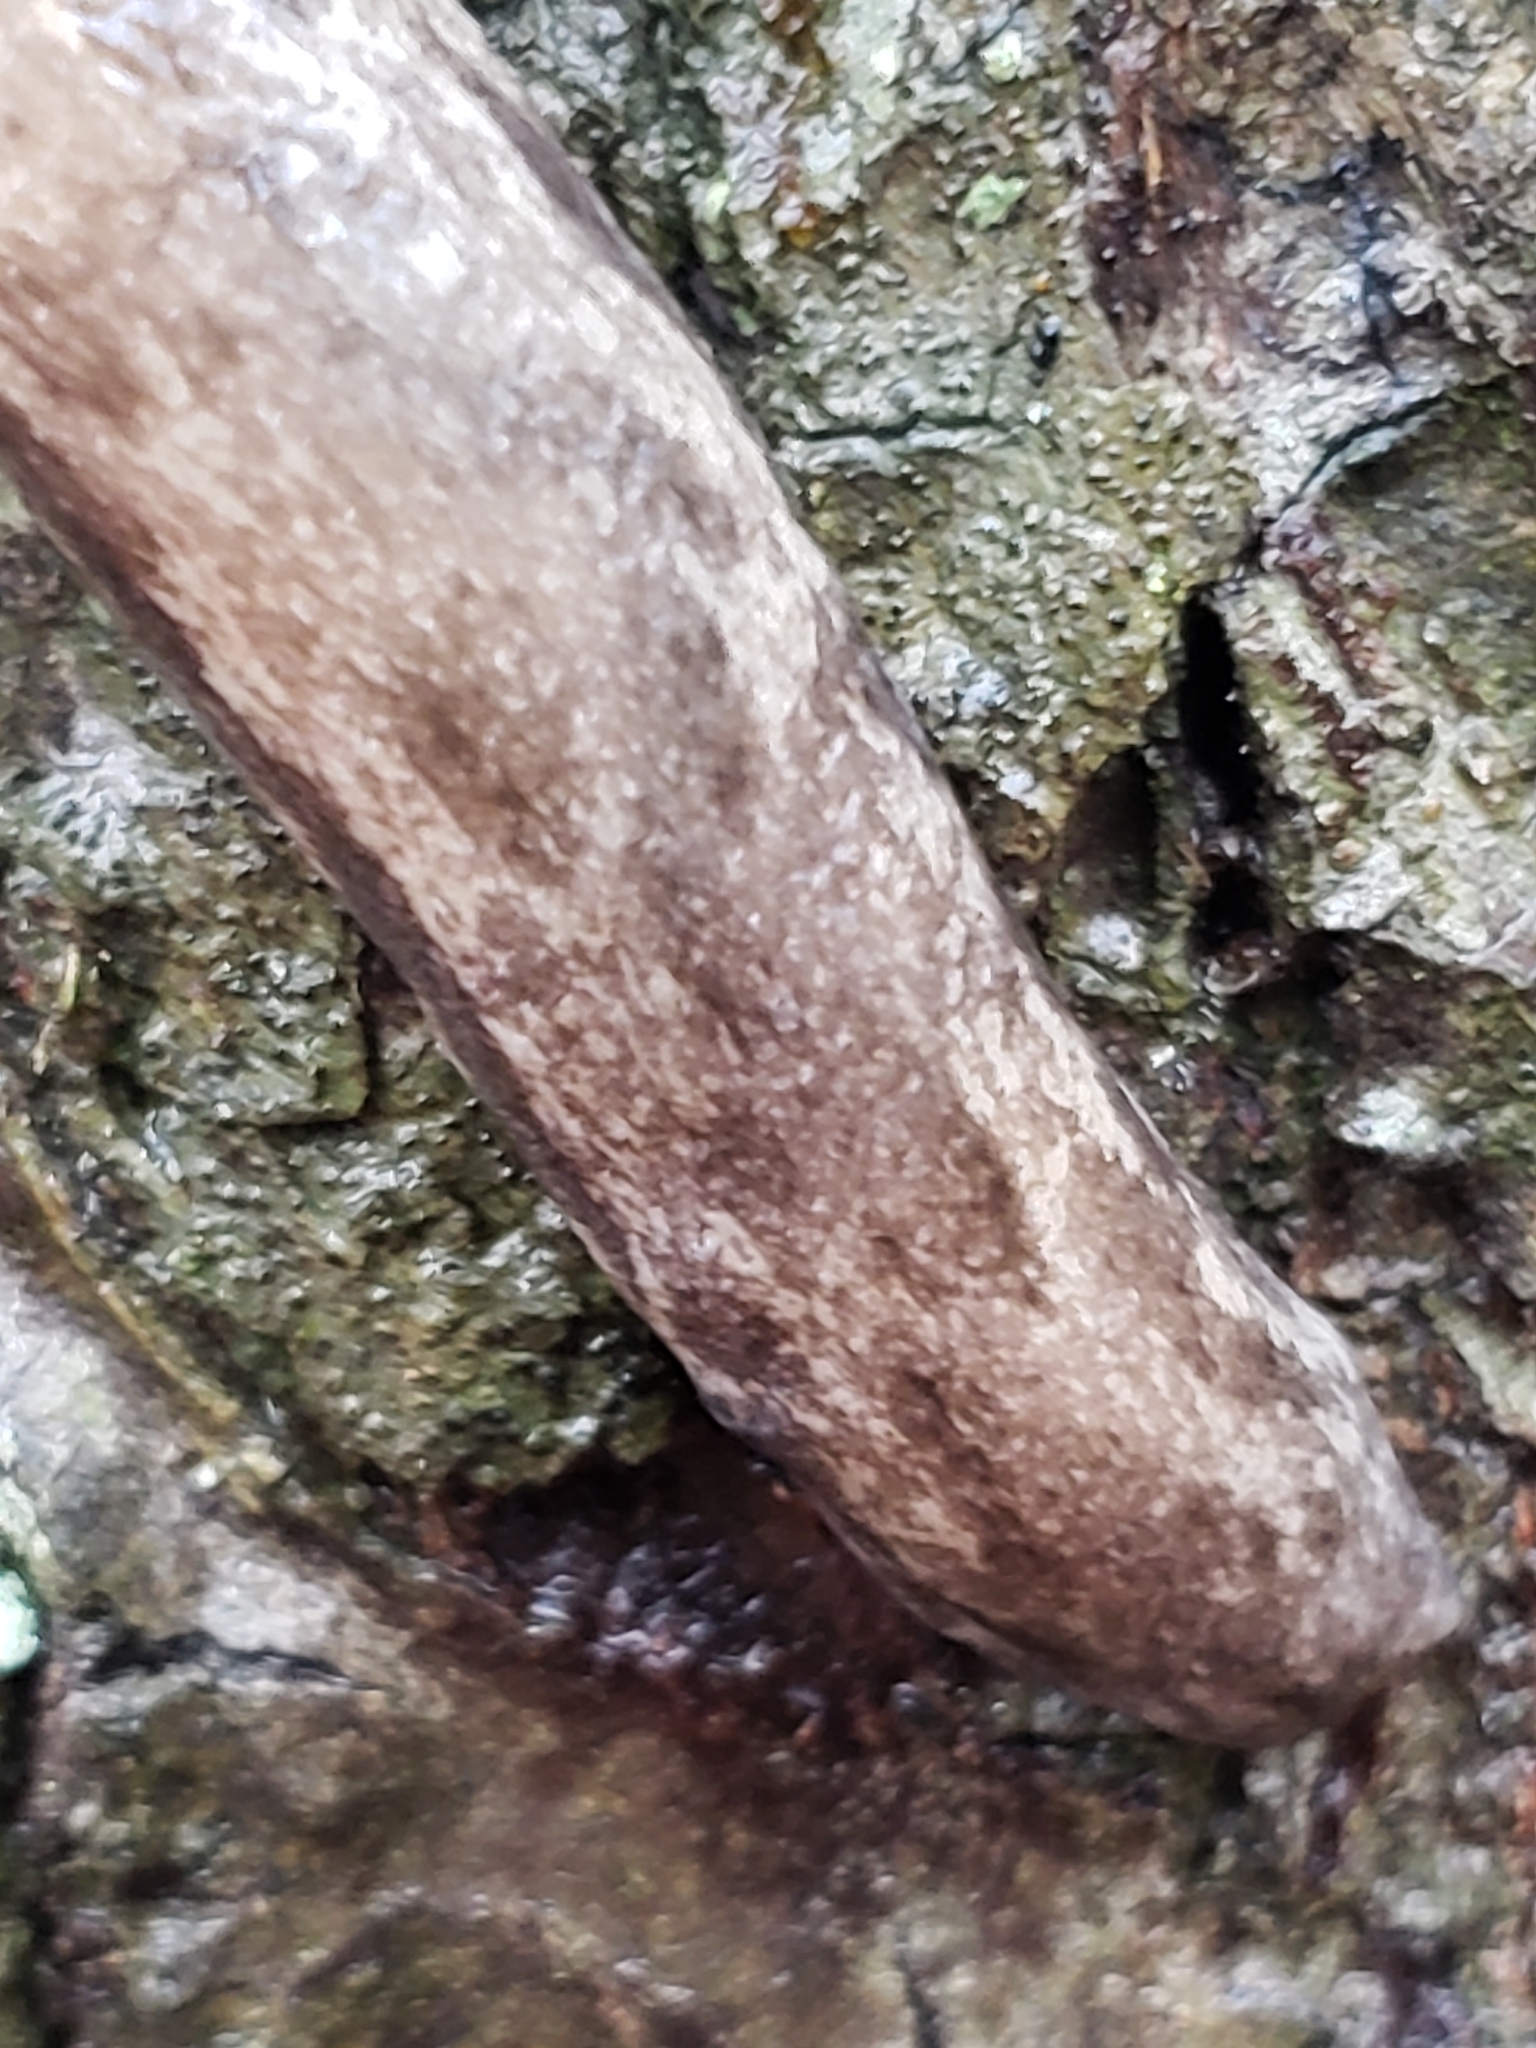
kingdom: Animalia
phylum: Mollusca
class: Gastropoda
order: Stylommatophora
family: Philomycidae
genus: Megapallifera
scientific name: Megapallifera mutabilis
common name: Changeable mantleslug
